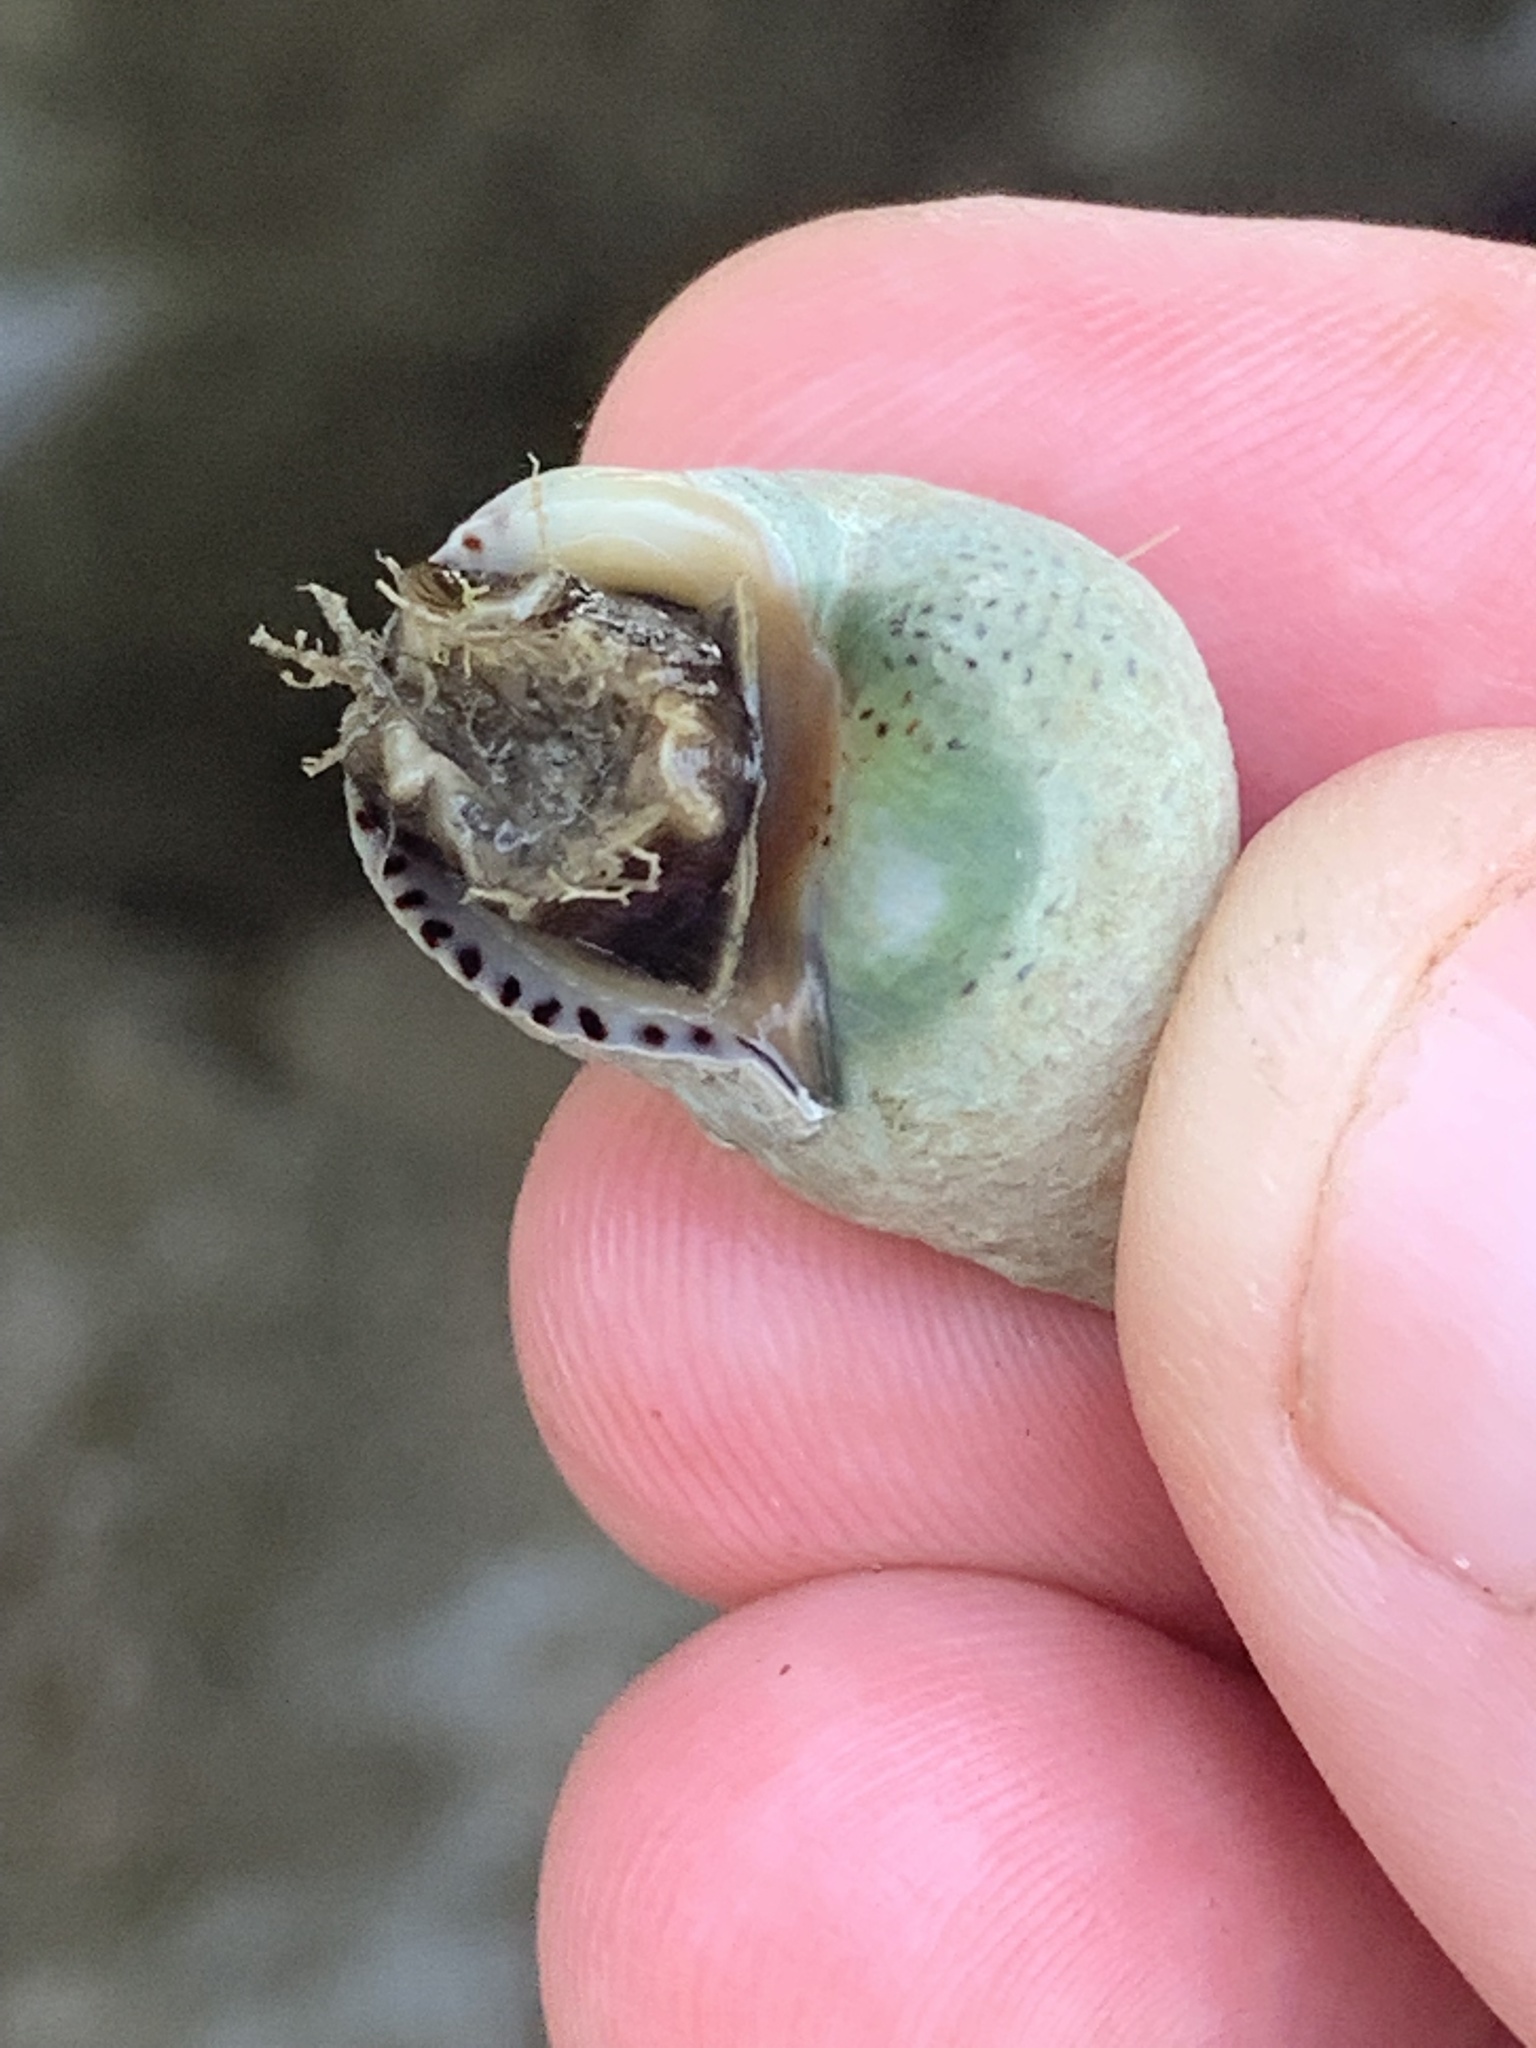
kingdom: Animalia
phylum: Mollusca
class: Gastropoda
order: Littorinimorpha
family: Littorinidae
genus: Littoraria
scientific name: Littoraria irrorata
